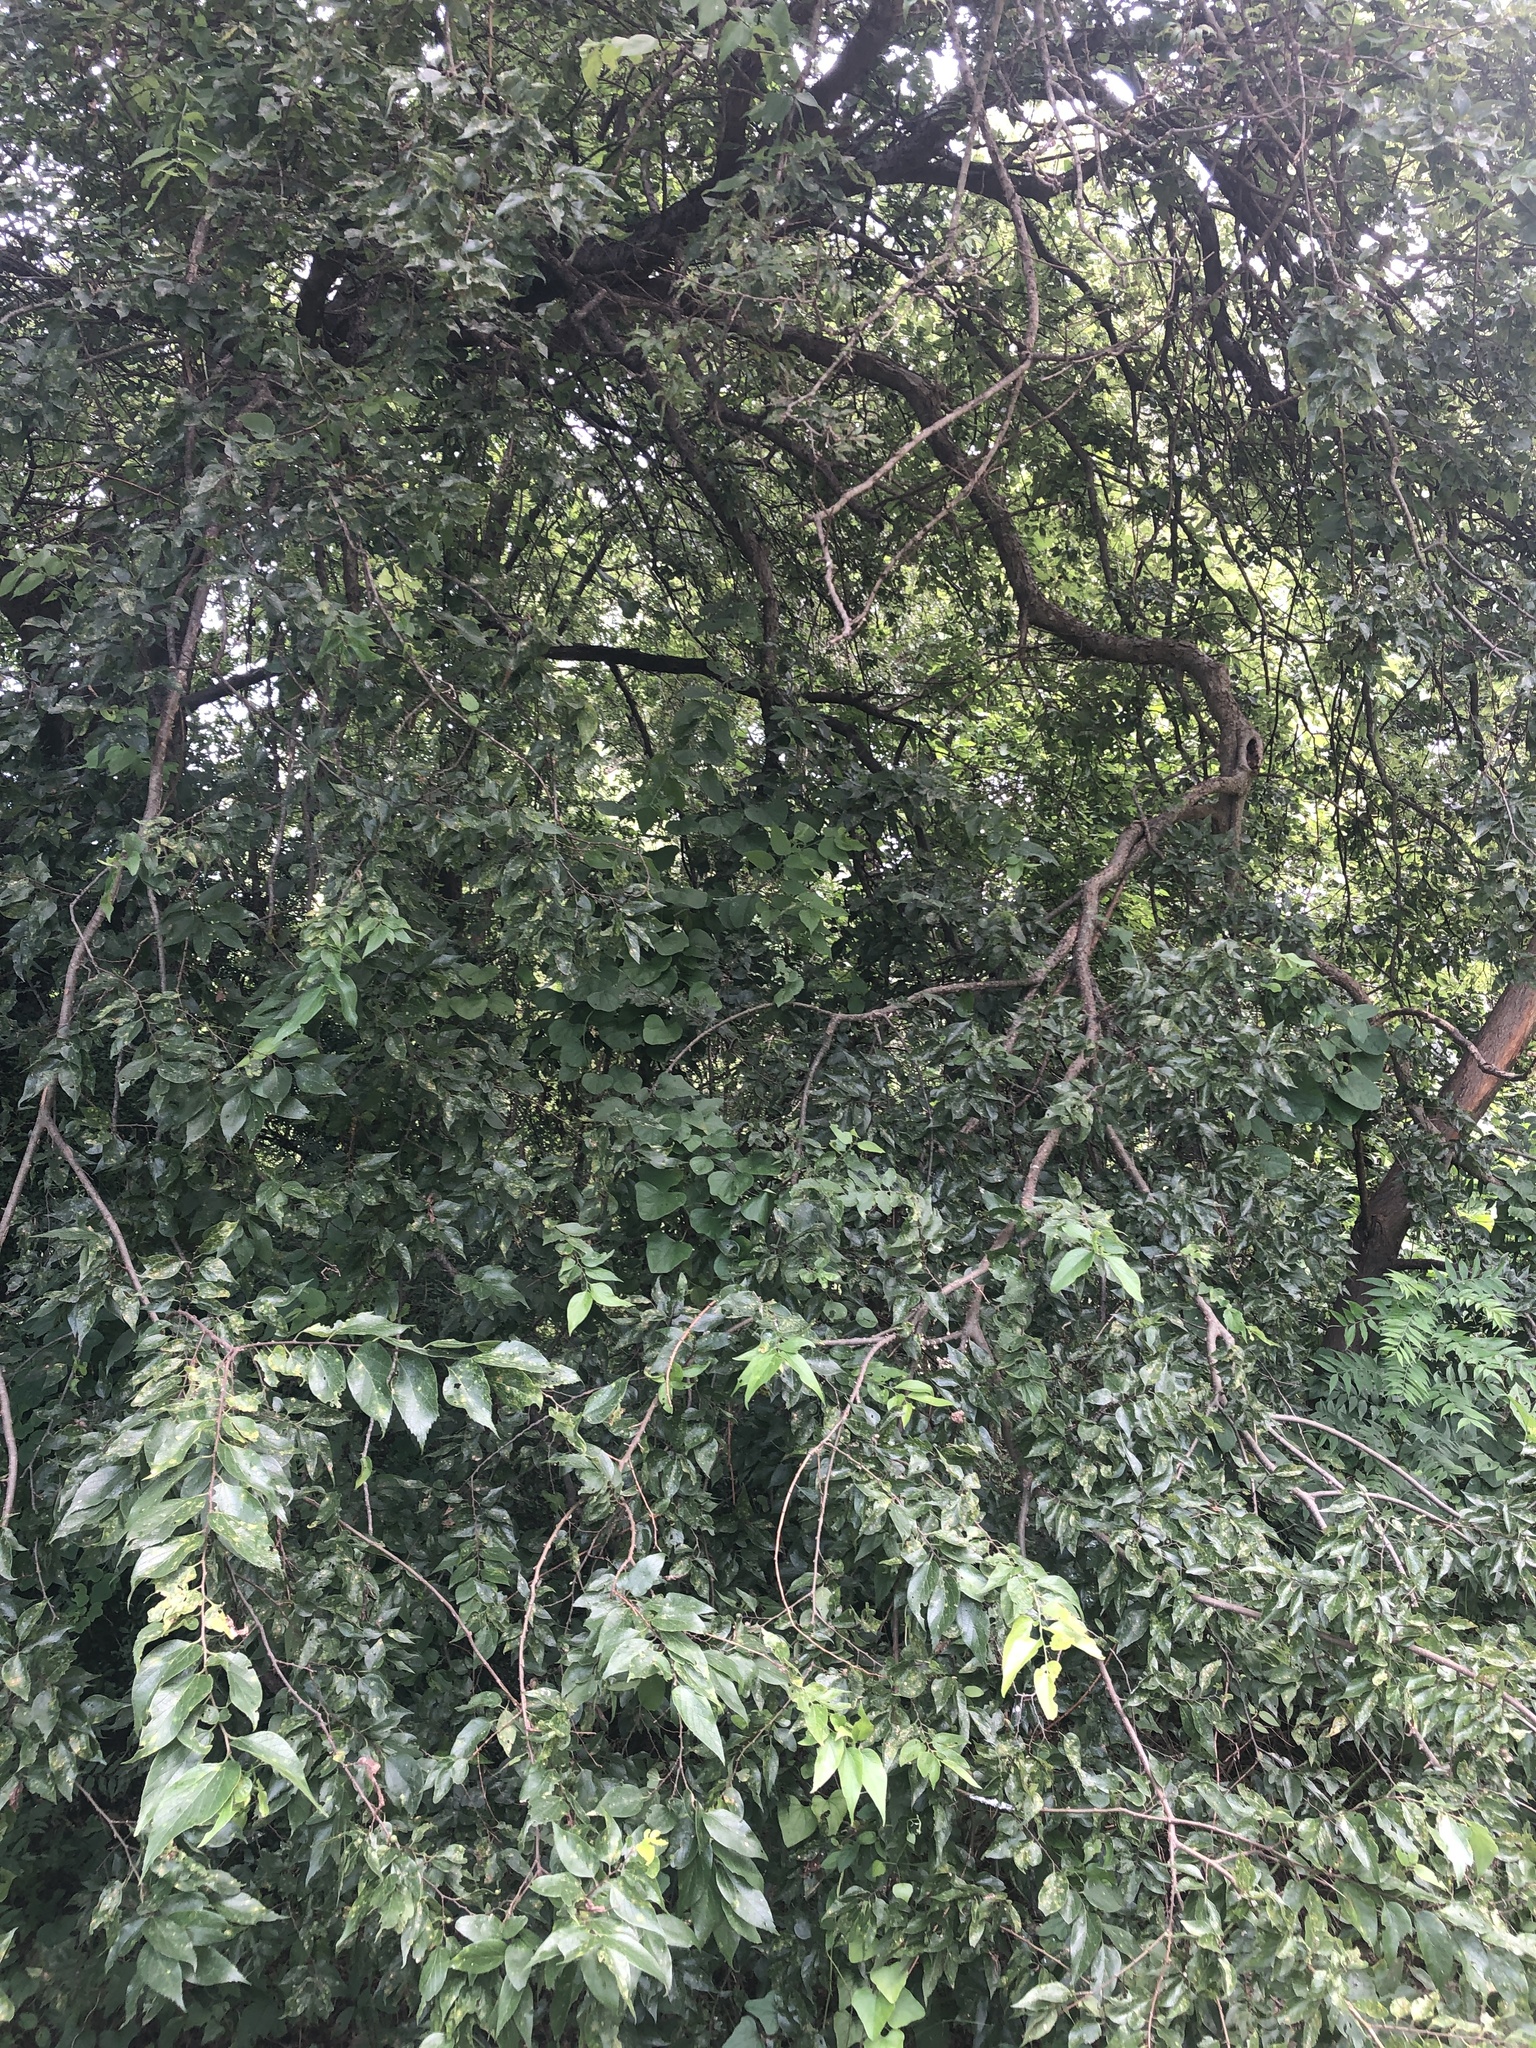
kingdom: Plantae
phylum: Tracheophyta
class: Magnoliopsida
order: Rosales
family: Cannabaceae
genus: Celtis
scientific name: Celtis laevigata
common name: Sugarberry
